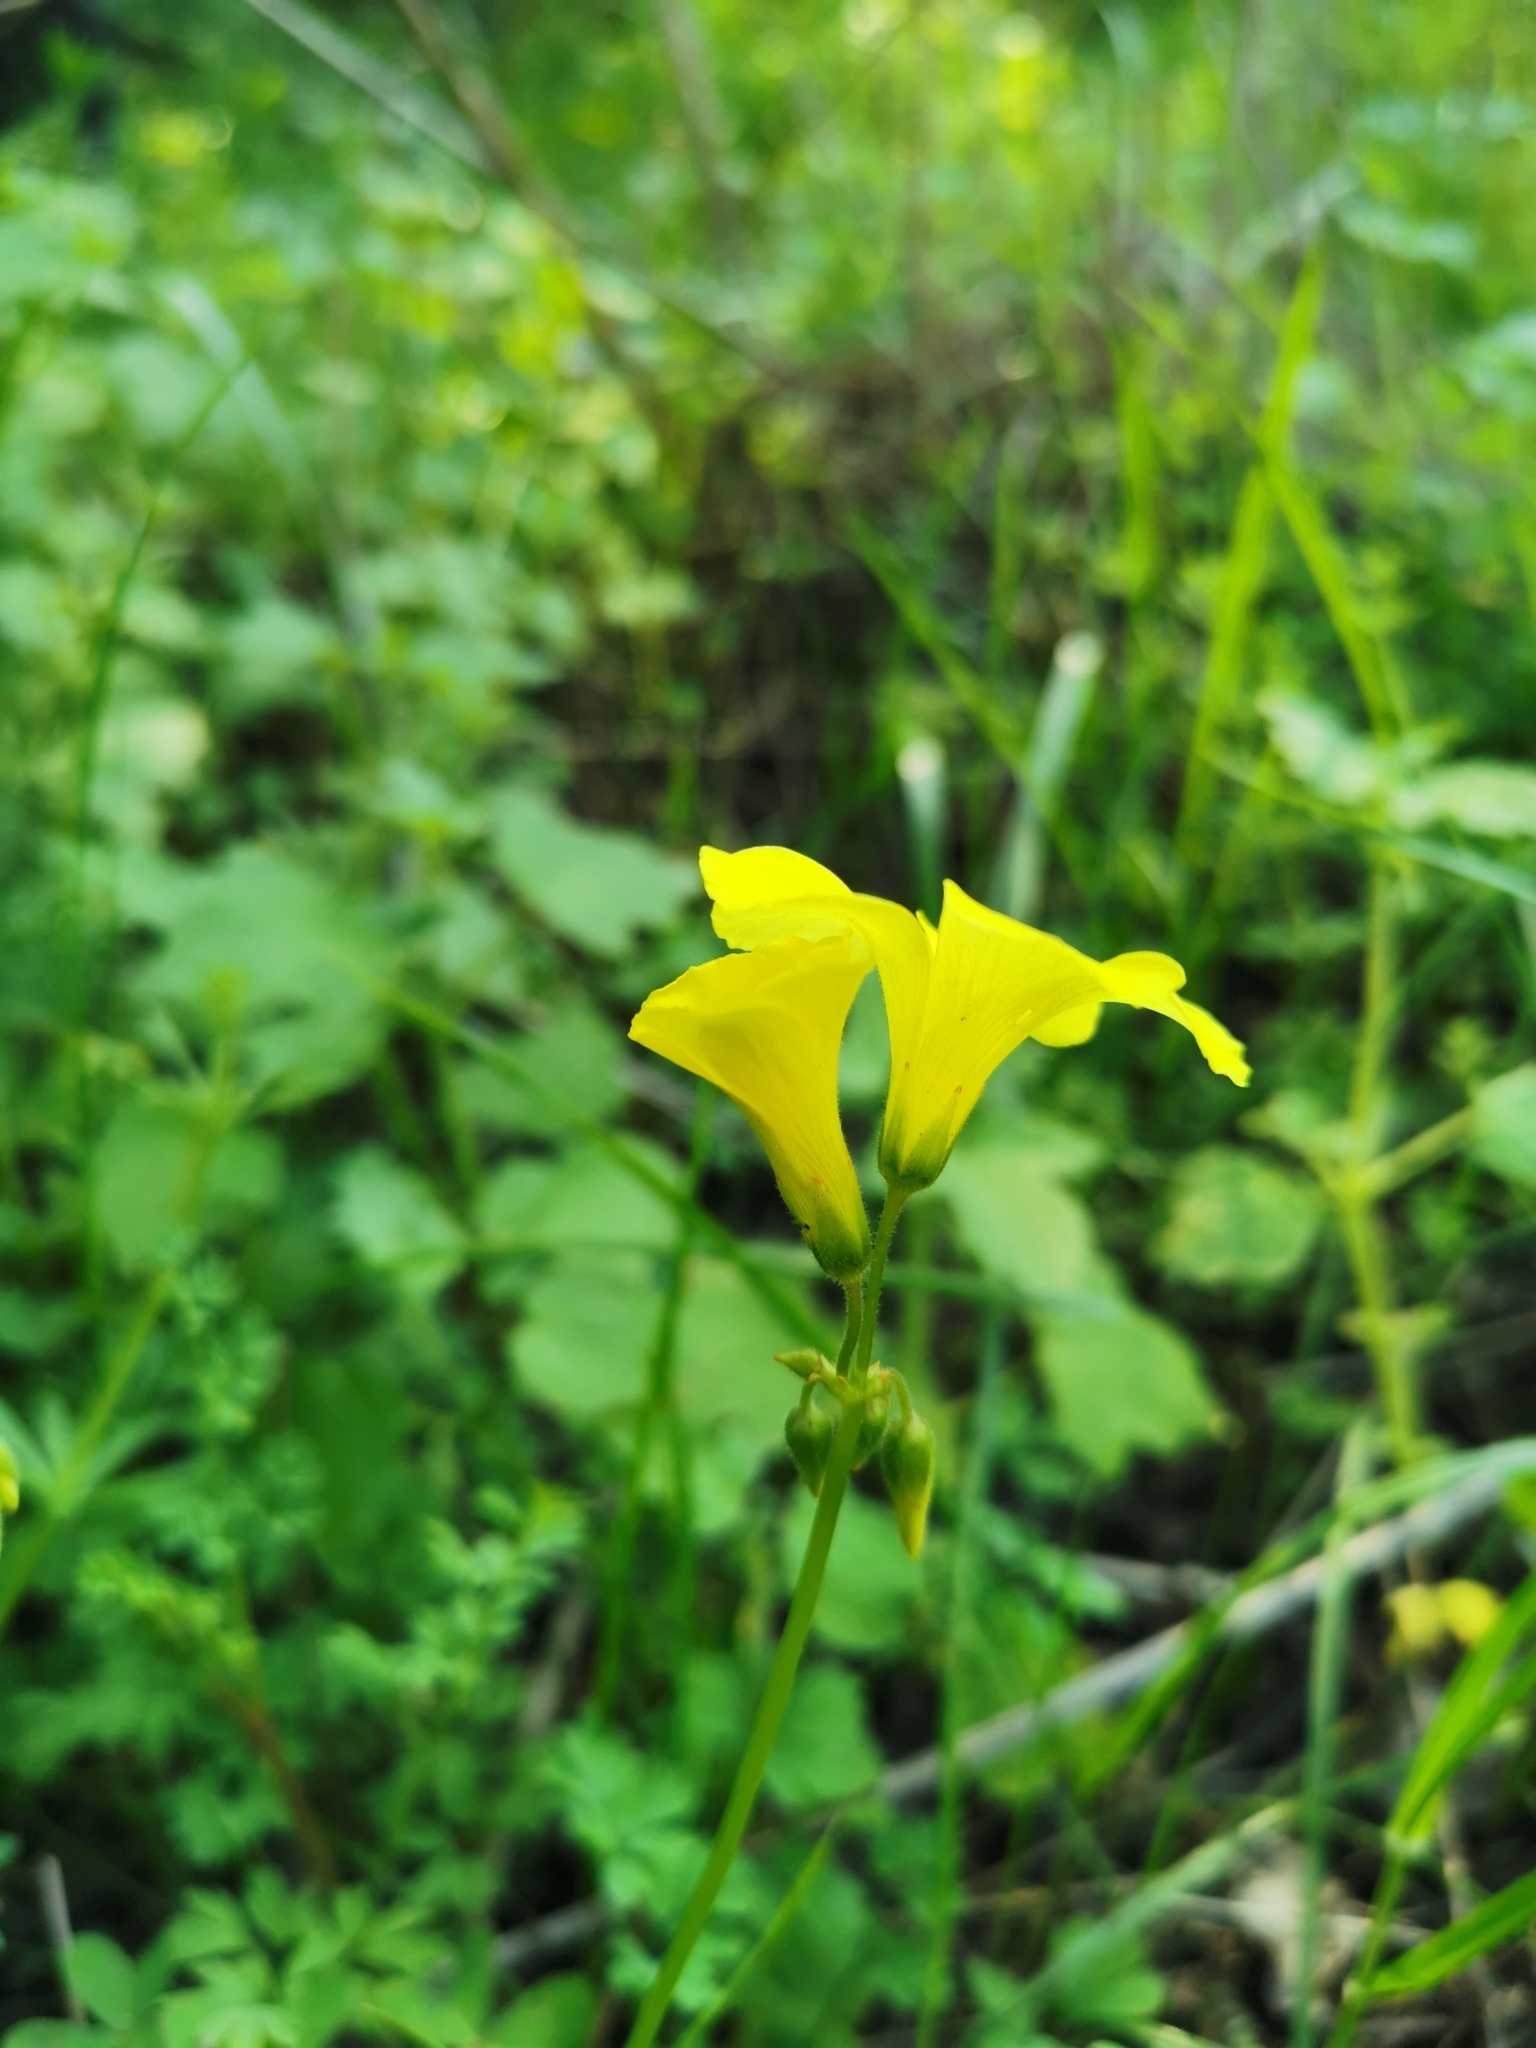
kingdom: Plantae
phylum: Tracheophyta
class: Magnoliopsida
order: Oxalidales
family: Oxalidaceae
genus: Oxalis
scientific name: Oxalis pes-caprae
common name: Bermuda-buttercup
